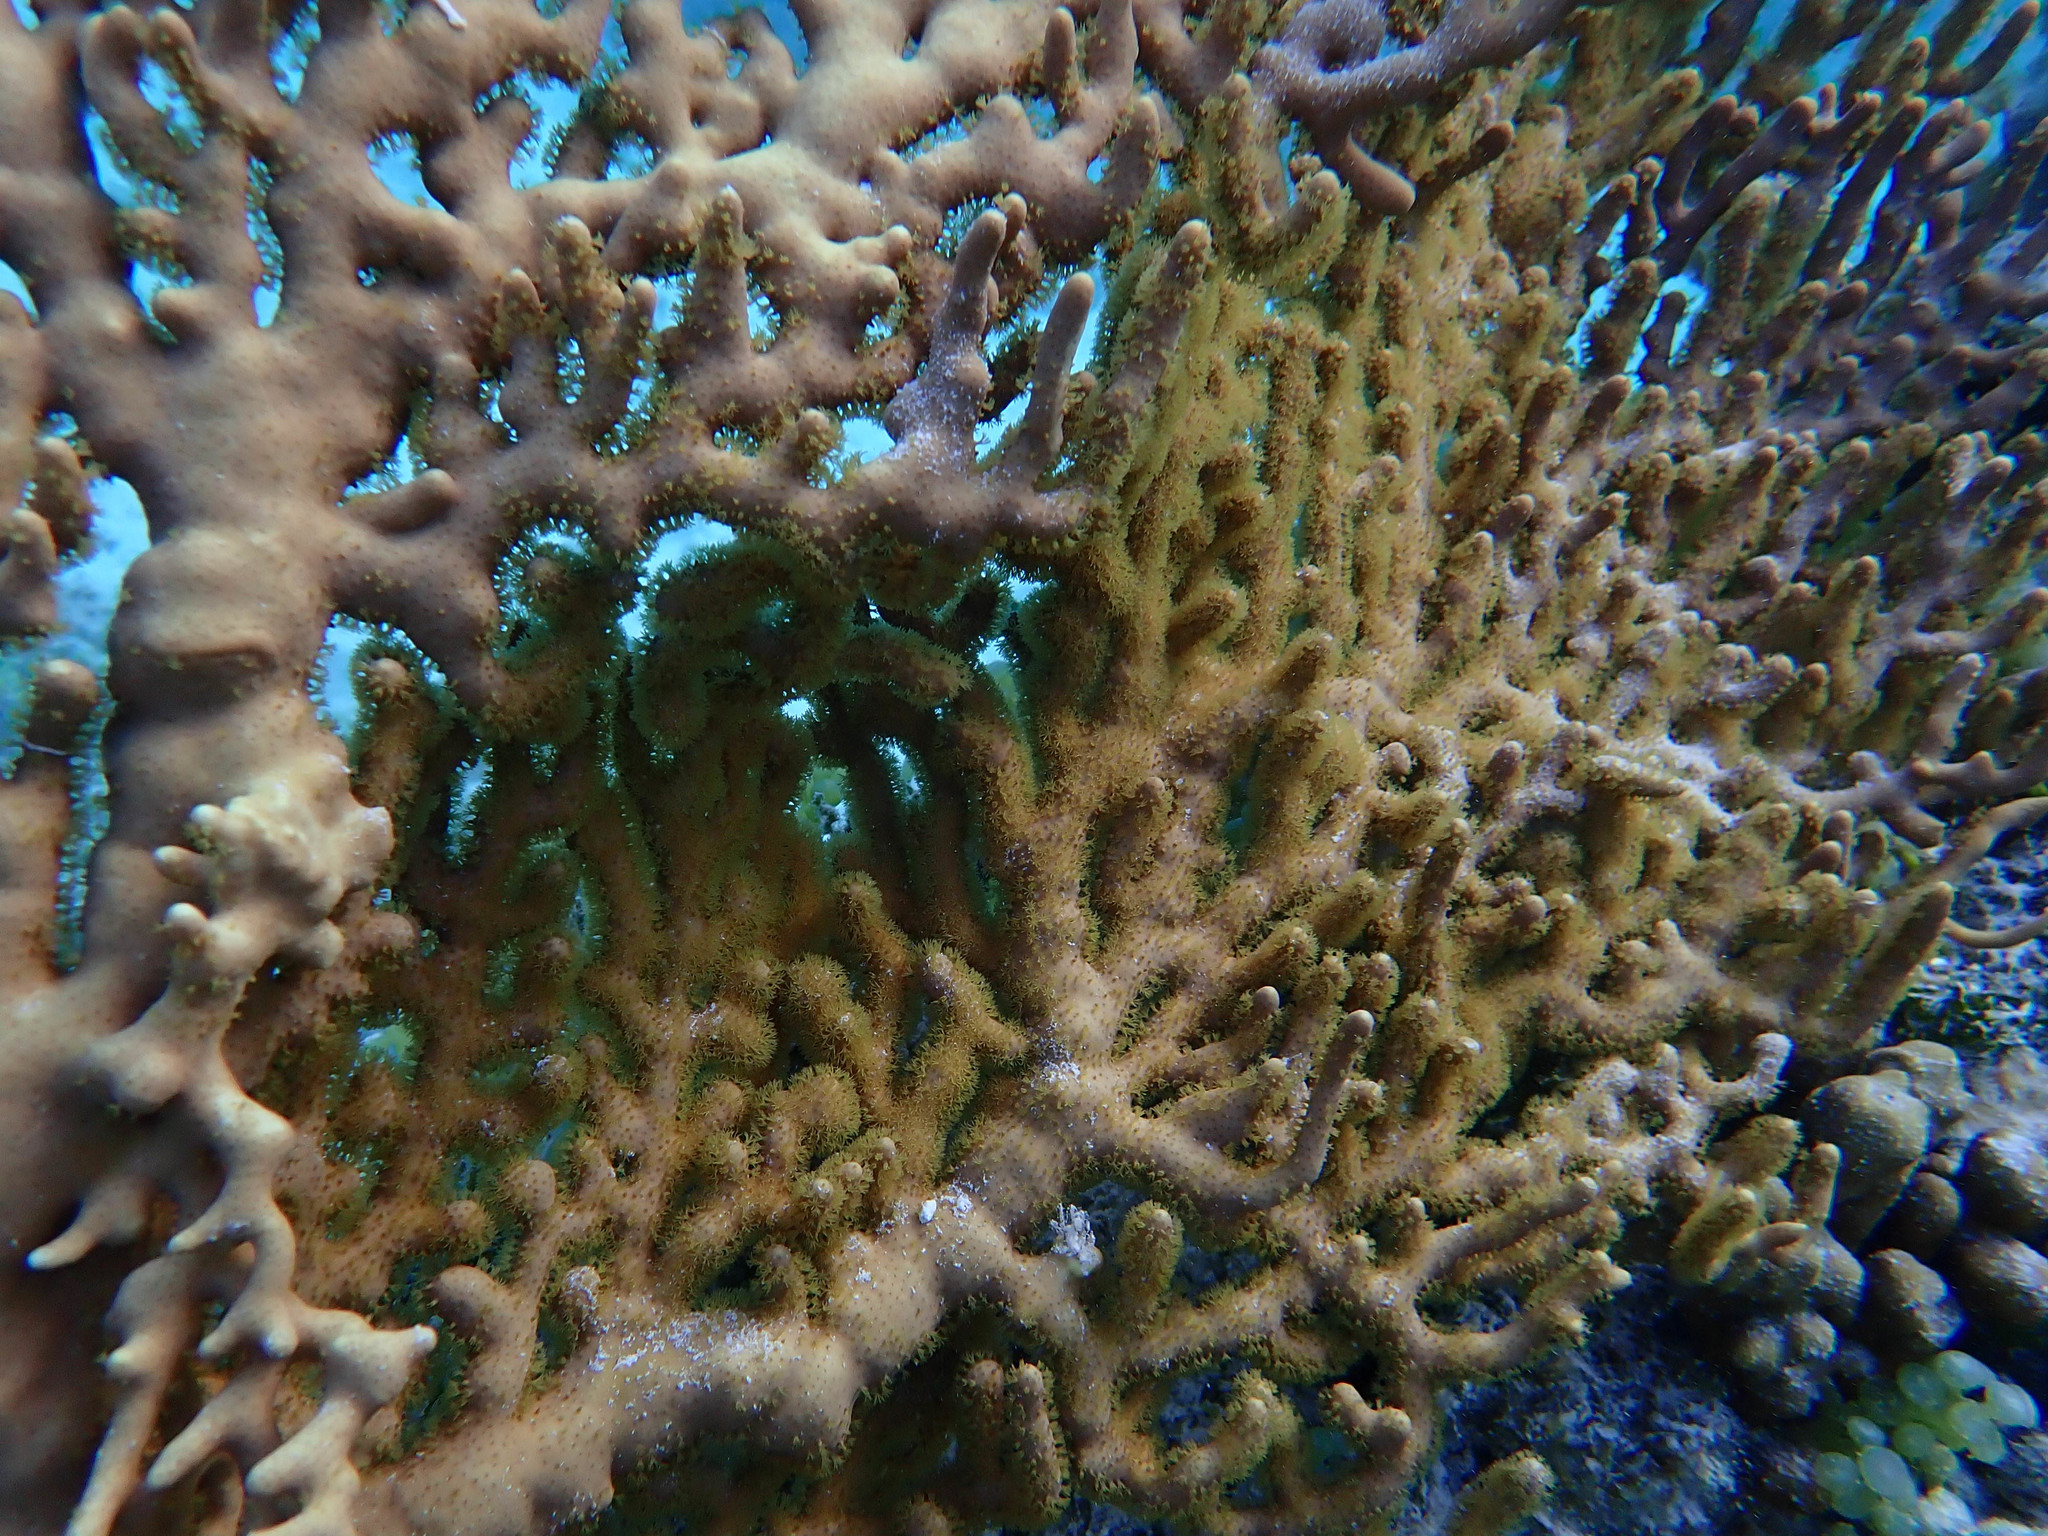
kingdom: Animalia
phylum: Cnidaria
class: Anthozoa
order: Malacalcyonacea
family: Isididae
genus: Isis
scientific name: Isis hippuris
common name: Golden sea fan
